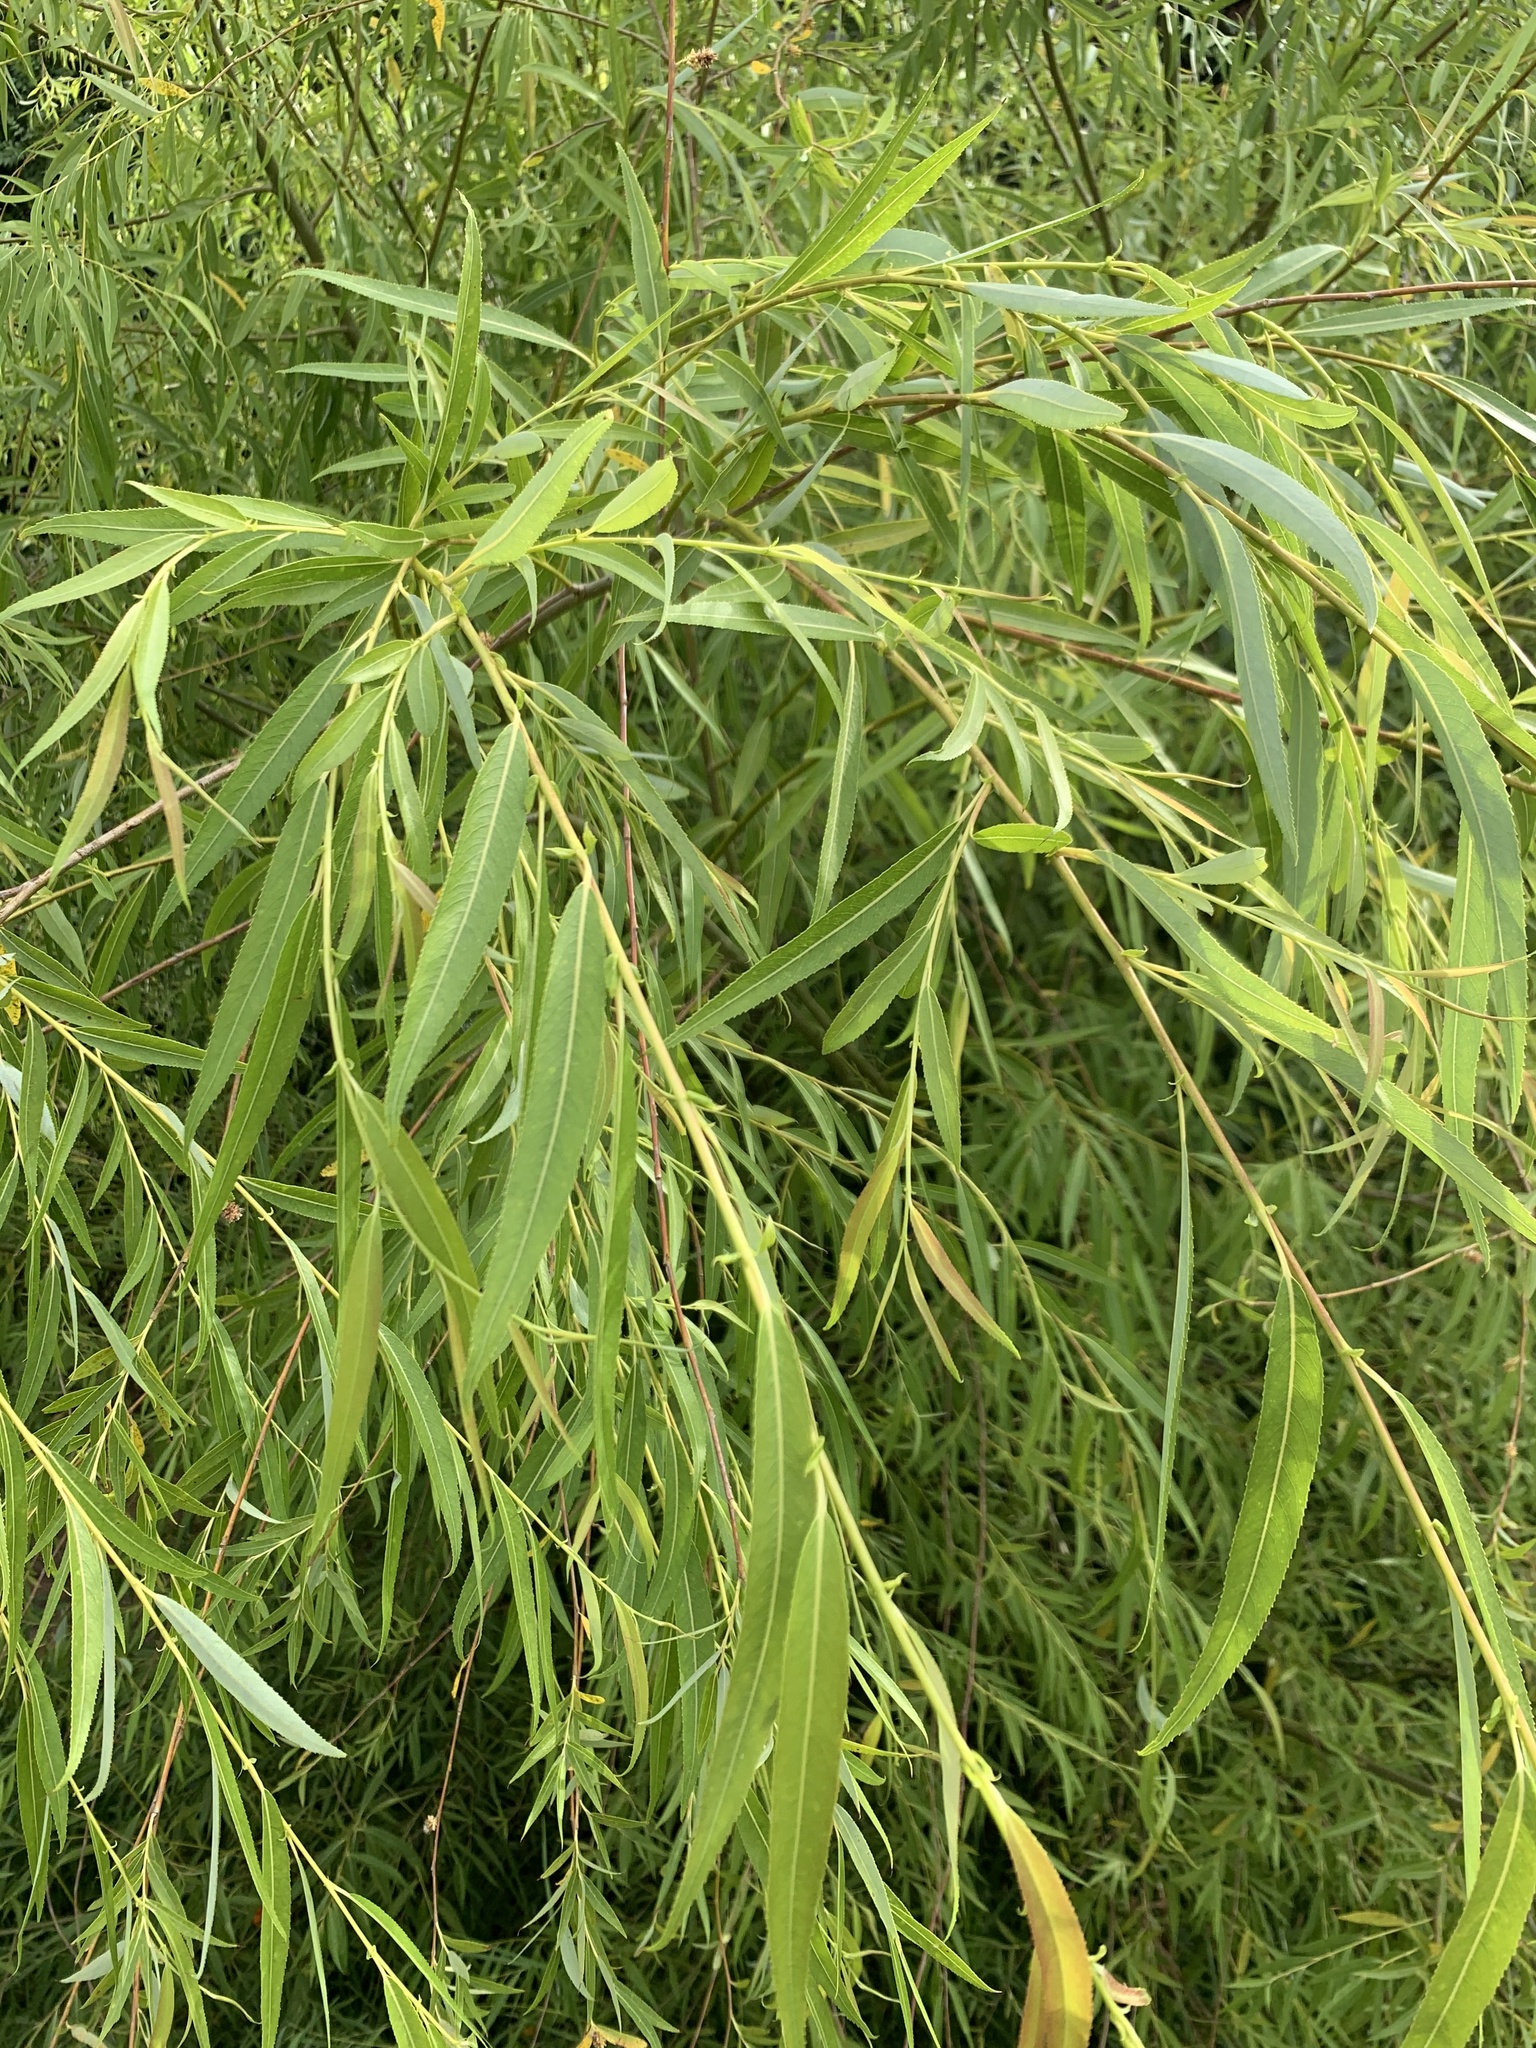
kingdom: Plantae
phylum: Tracheophyta
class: Magnoliopsida
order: Malpighiales
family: Salicaceae
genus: Salix
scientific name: Salix babylonica
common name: Weeping willow
